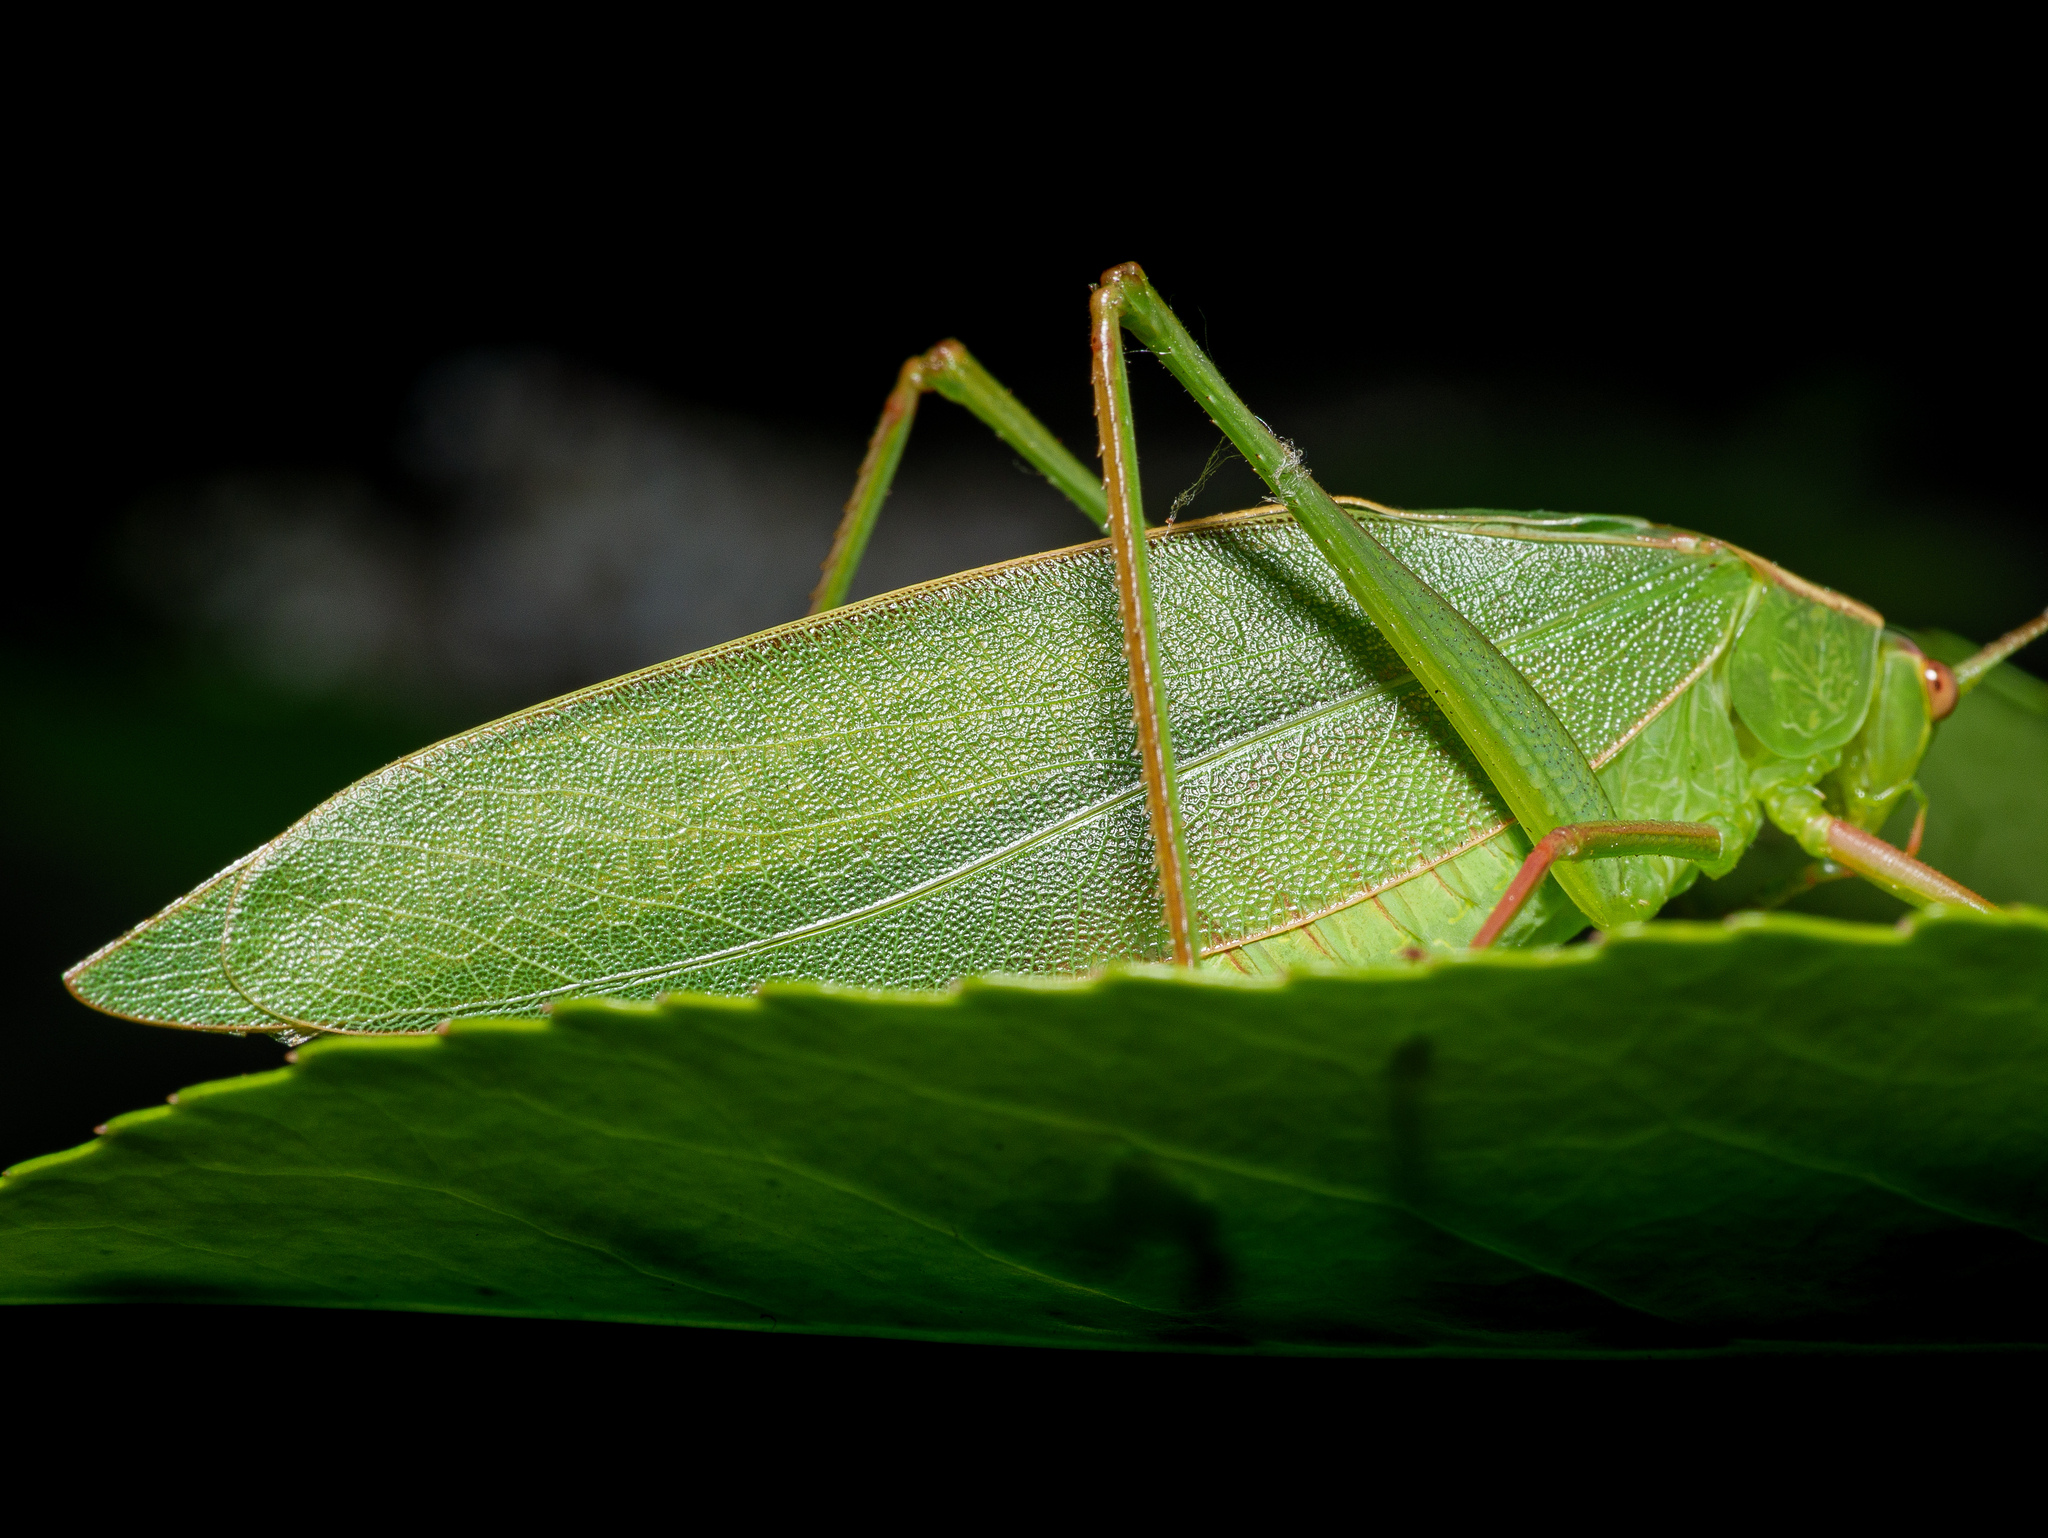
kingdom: Animalia
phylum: Arthropoda
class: Insecta
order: Orthoptera
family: Tettigoniidae
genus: Caedicia
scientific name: Caedicia simplex
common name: Common garden katydid
